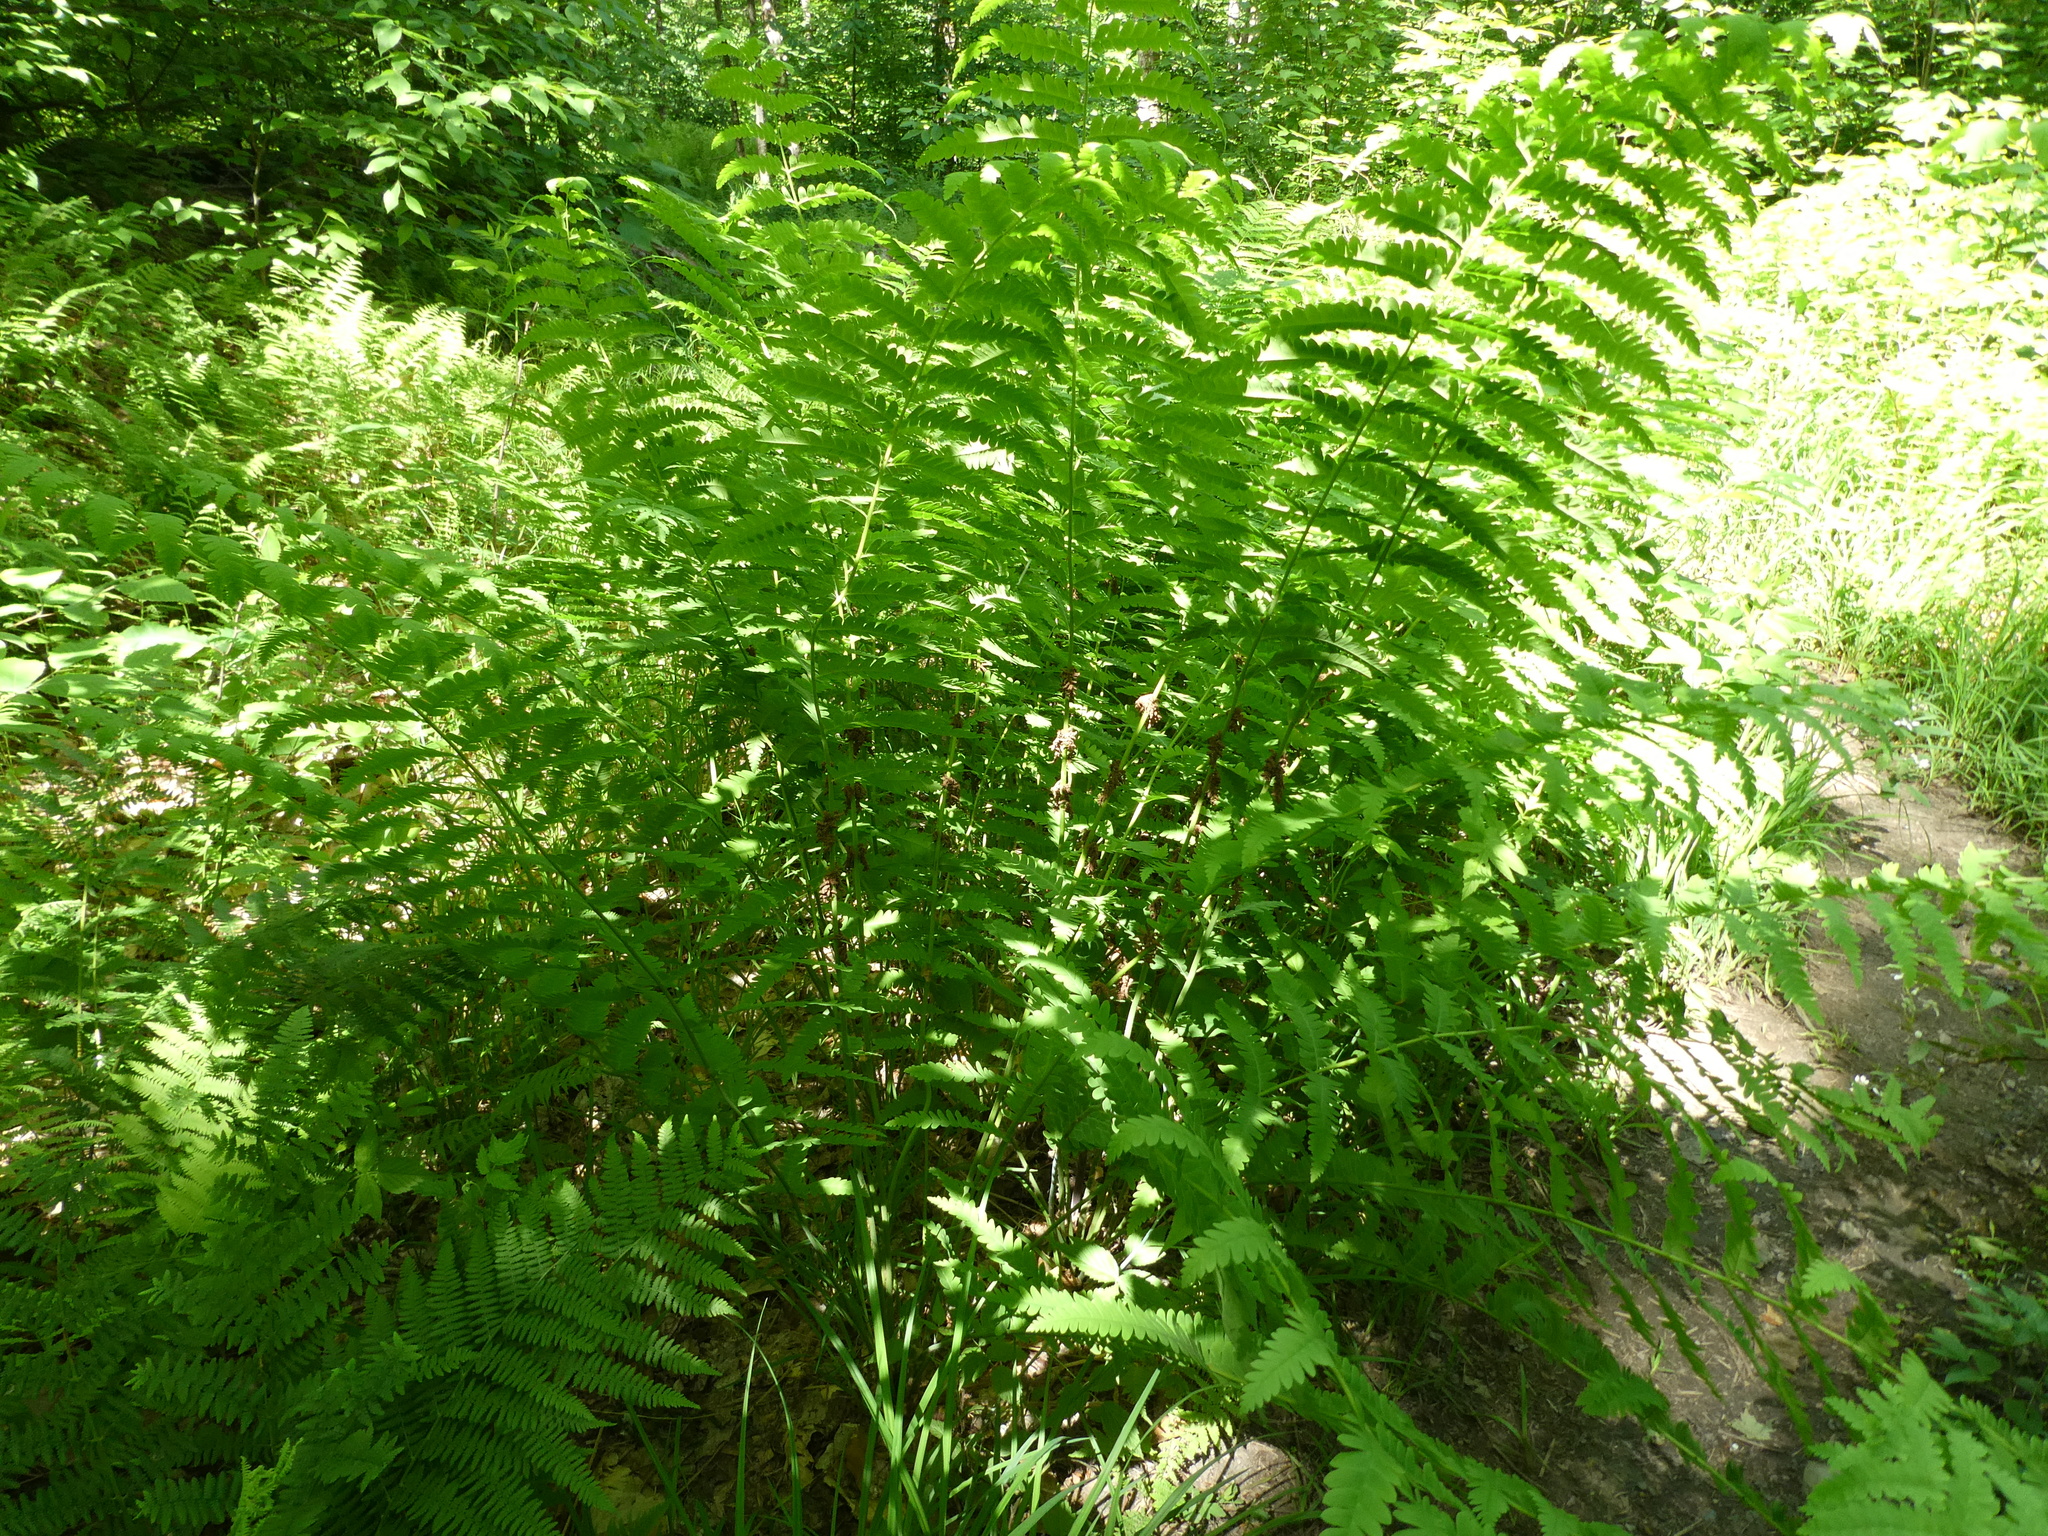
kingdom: Plantae
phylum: Tracheophyta
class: Polypodiopsida
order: Osmundales
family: Osmundaceae
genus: Claytosmunda
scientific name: Claytosmunda claytoniana
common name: Clayton's fern
